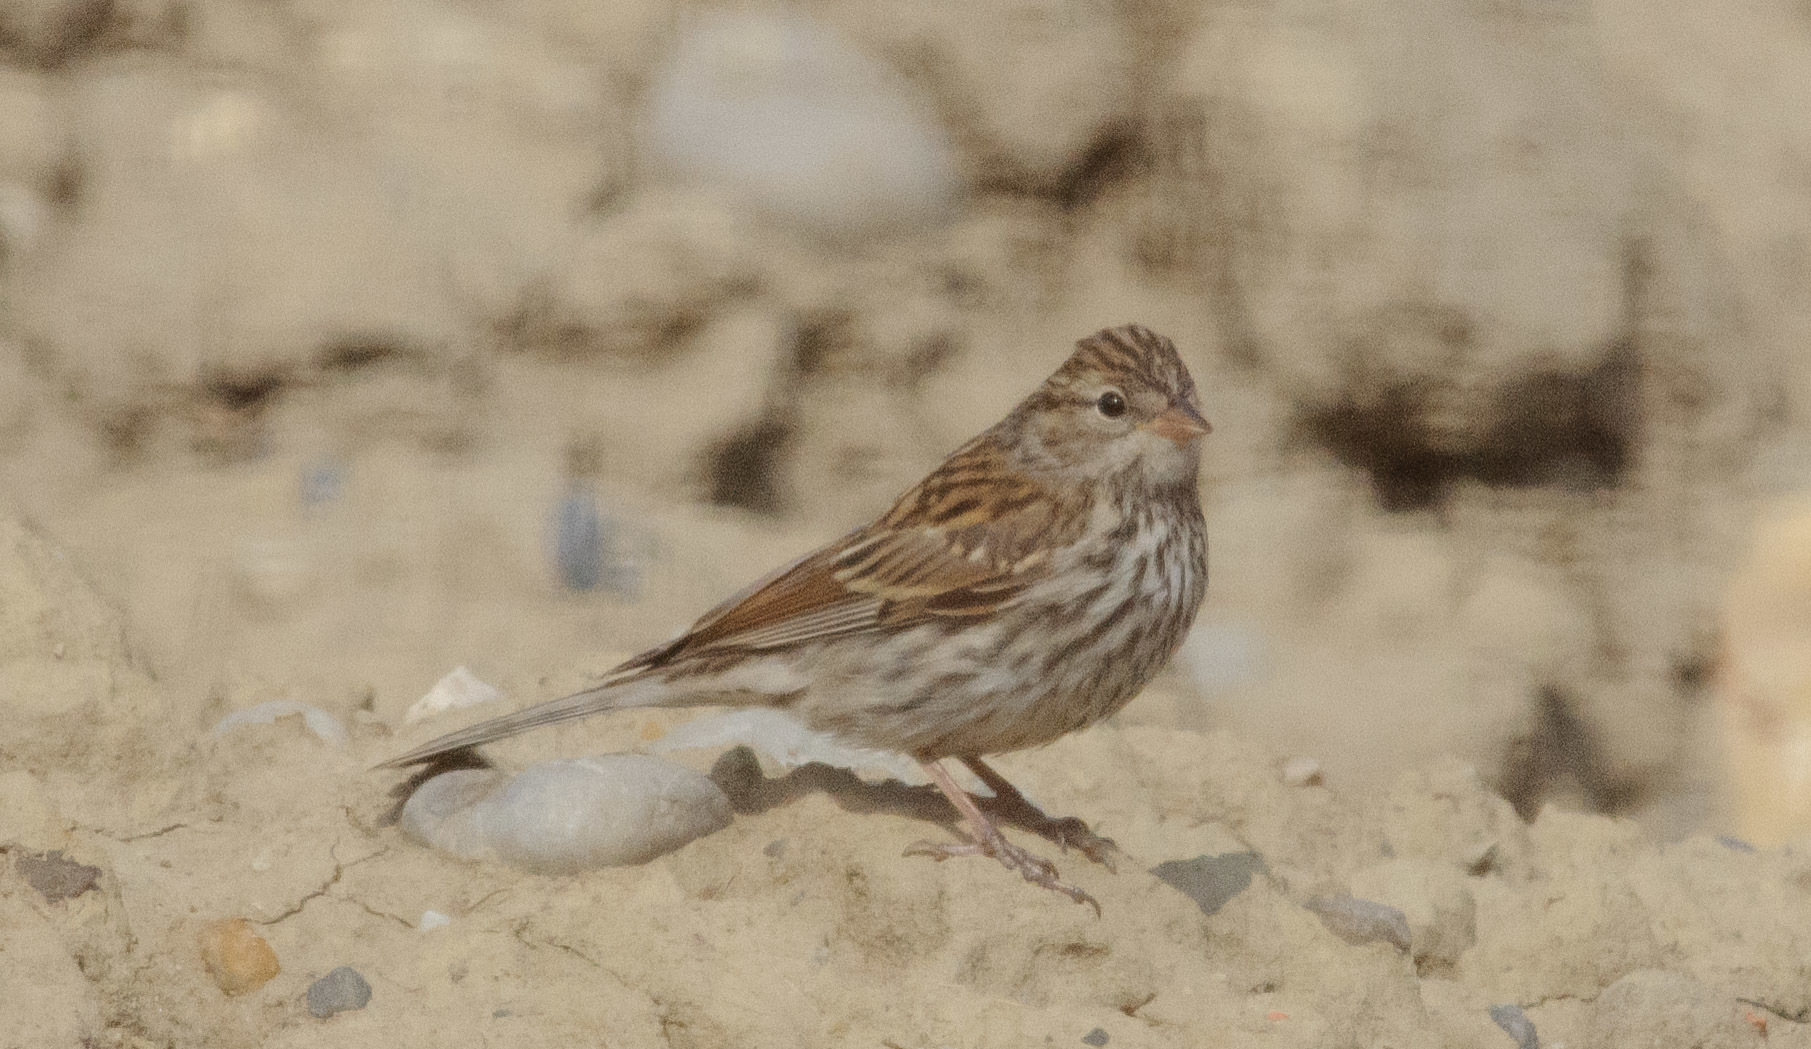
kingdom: Animalia
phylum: Chordata
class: Aves
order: Passeriformes
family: Passerellidae
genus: Spizella
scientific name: Spizella passerina
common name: Chipping sparrow
